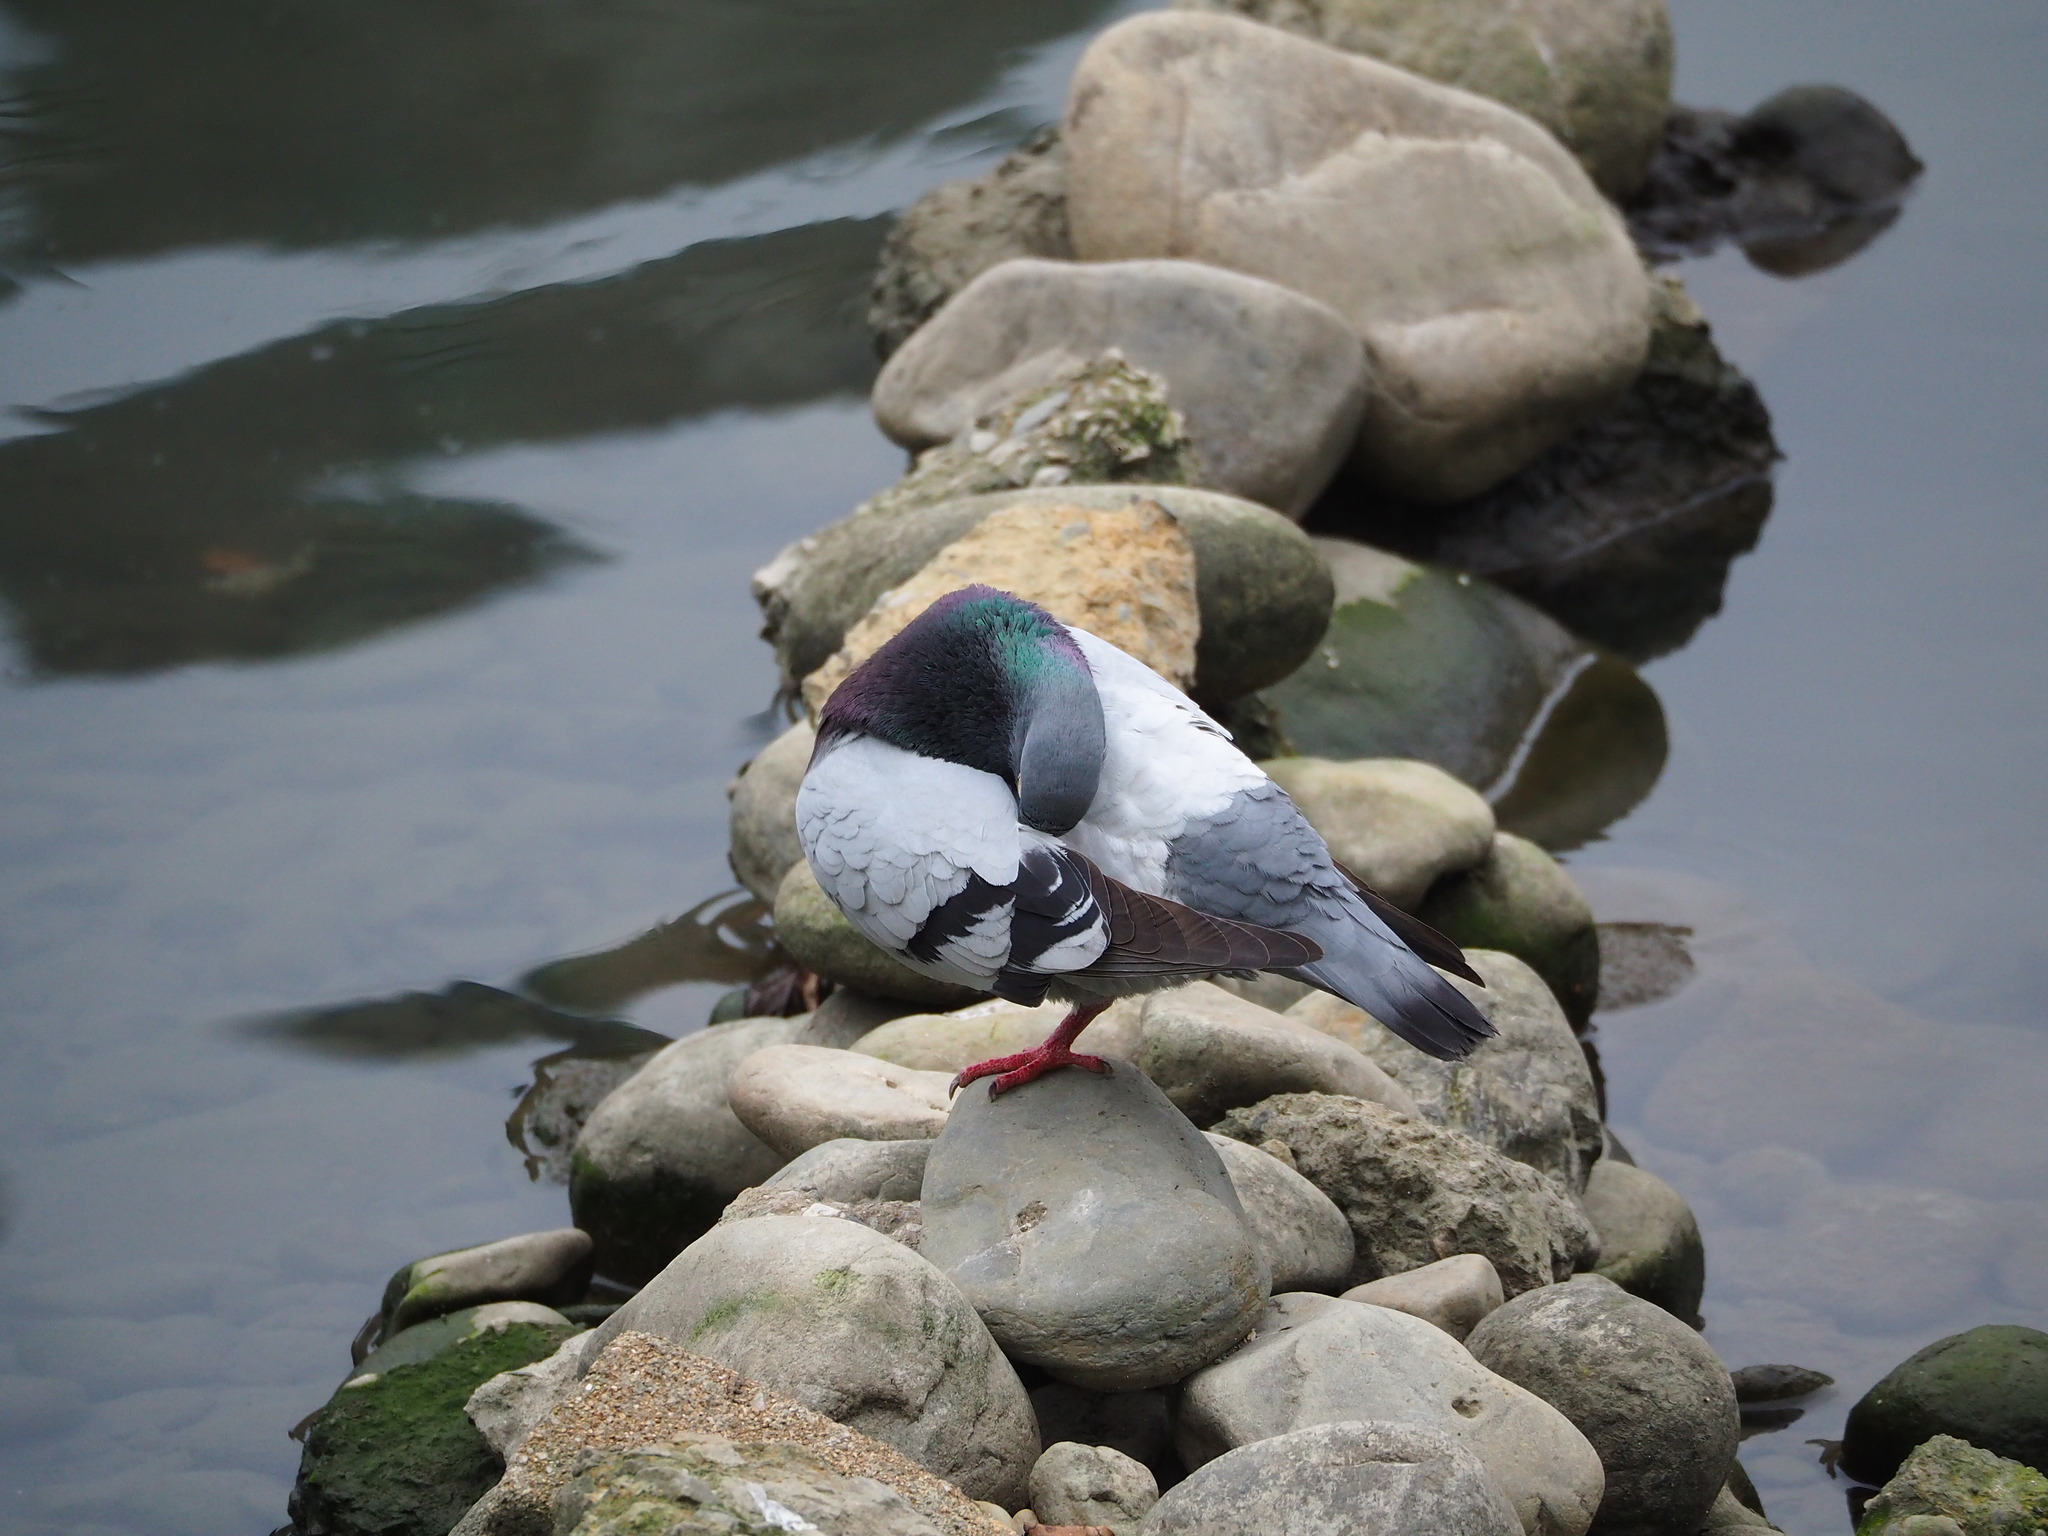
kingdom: Animalia
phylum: Chordata
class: Aves
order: Columbiformes
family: Columbidae
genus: Columba
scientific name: Columba livia
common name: Rock pigeon
